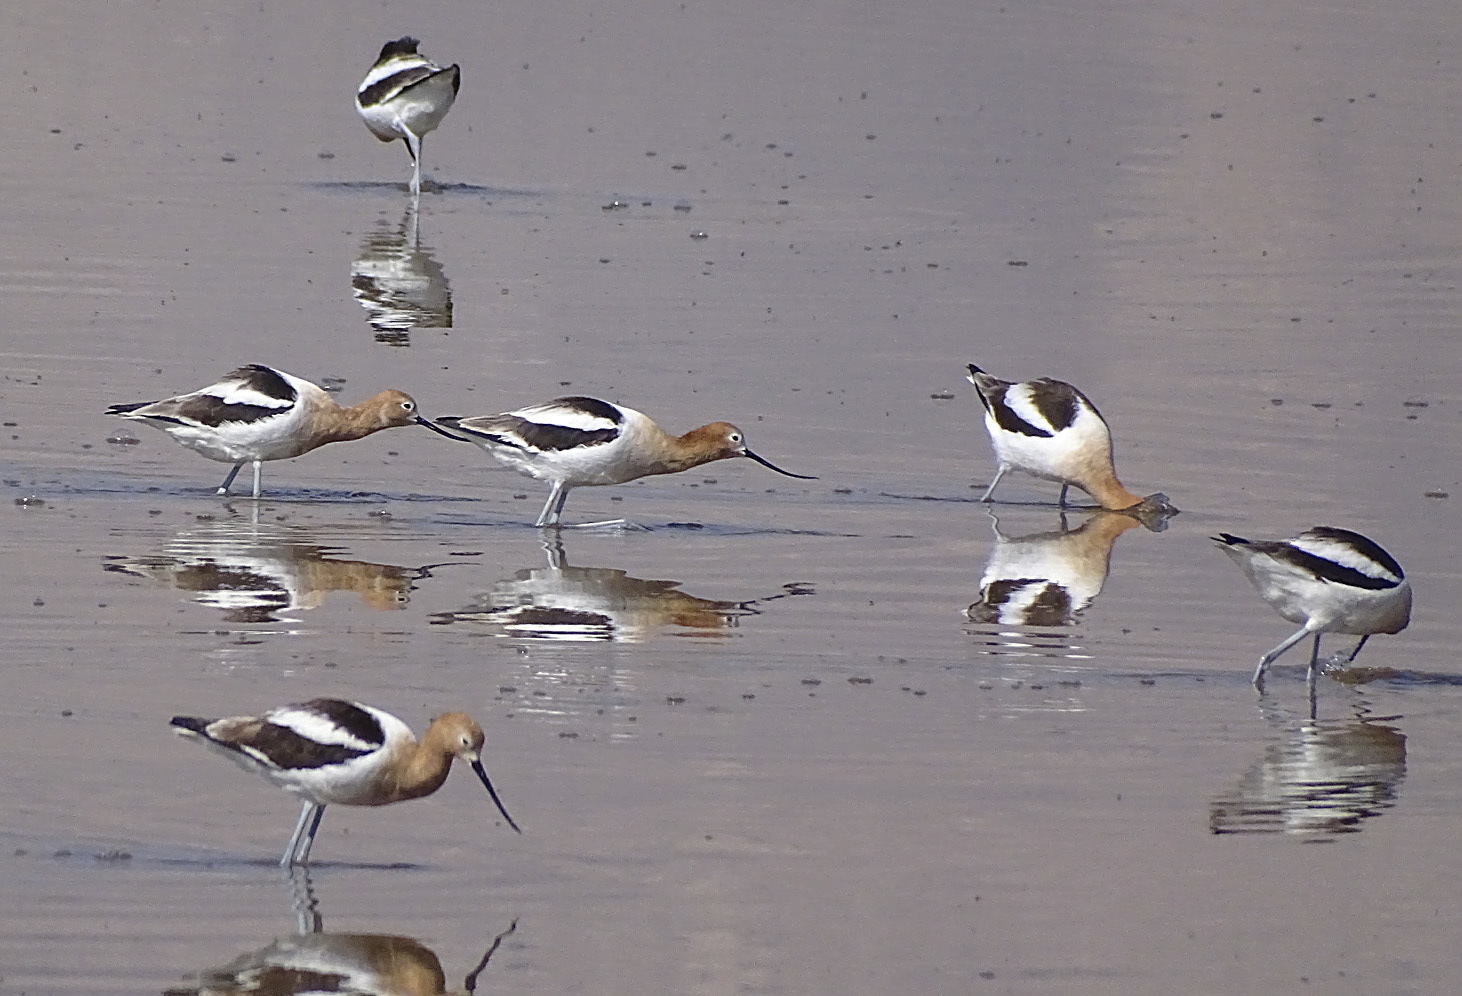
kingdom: Animalia
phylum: Chordata
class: Aves
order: Charadriiformes
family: Recurvirostridae
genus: Recurvirostra
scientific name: Recurvirostra americana
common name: American avocet
